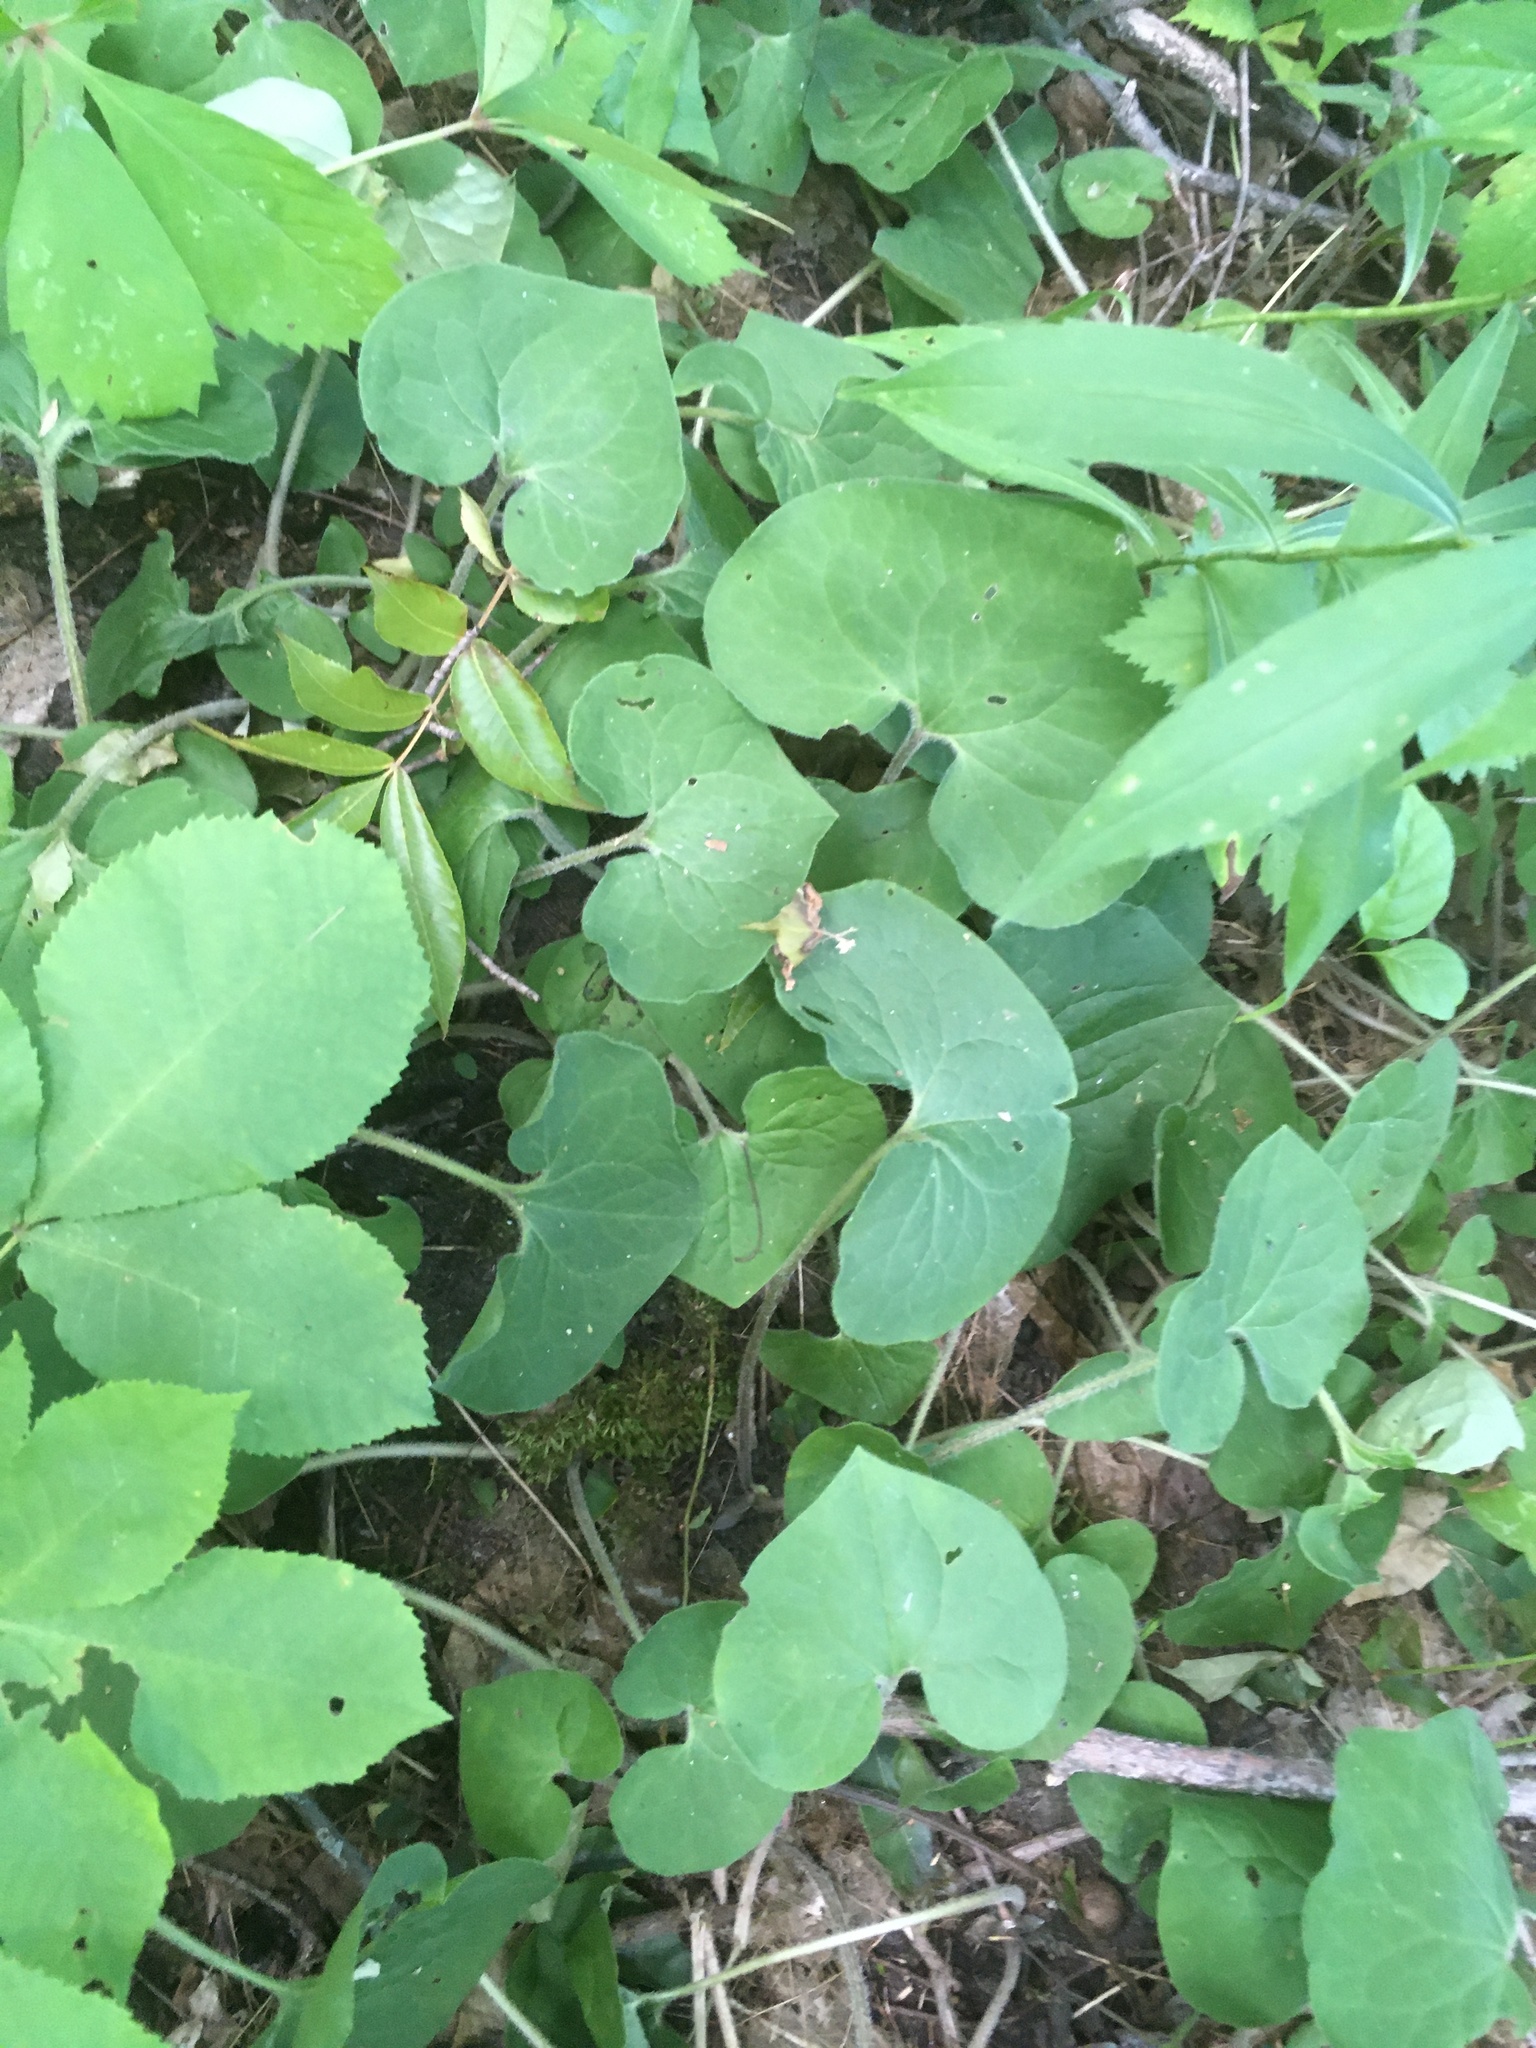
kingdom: Plantae
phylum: Tracheophyta
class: Magnoliopsida
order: Piperales
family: Aristolochiaceae
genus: Asarum
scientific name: Asarum canadense
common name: Wild ginger
